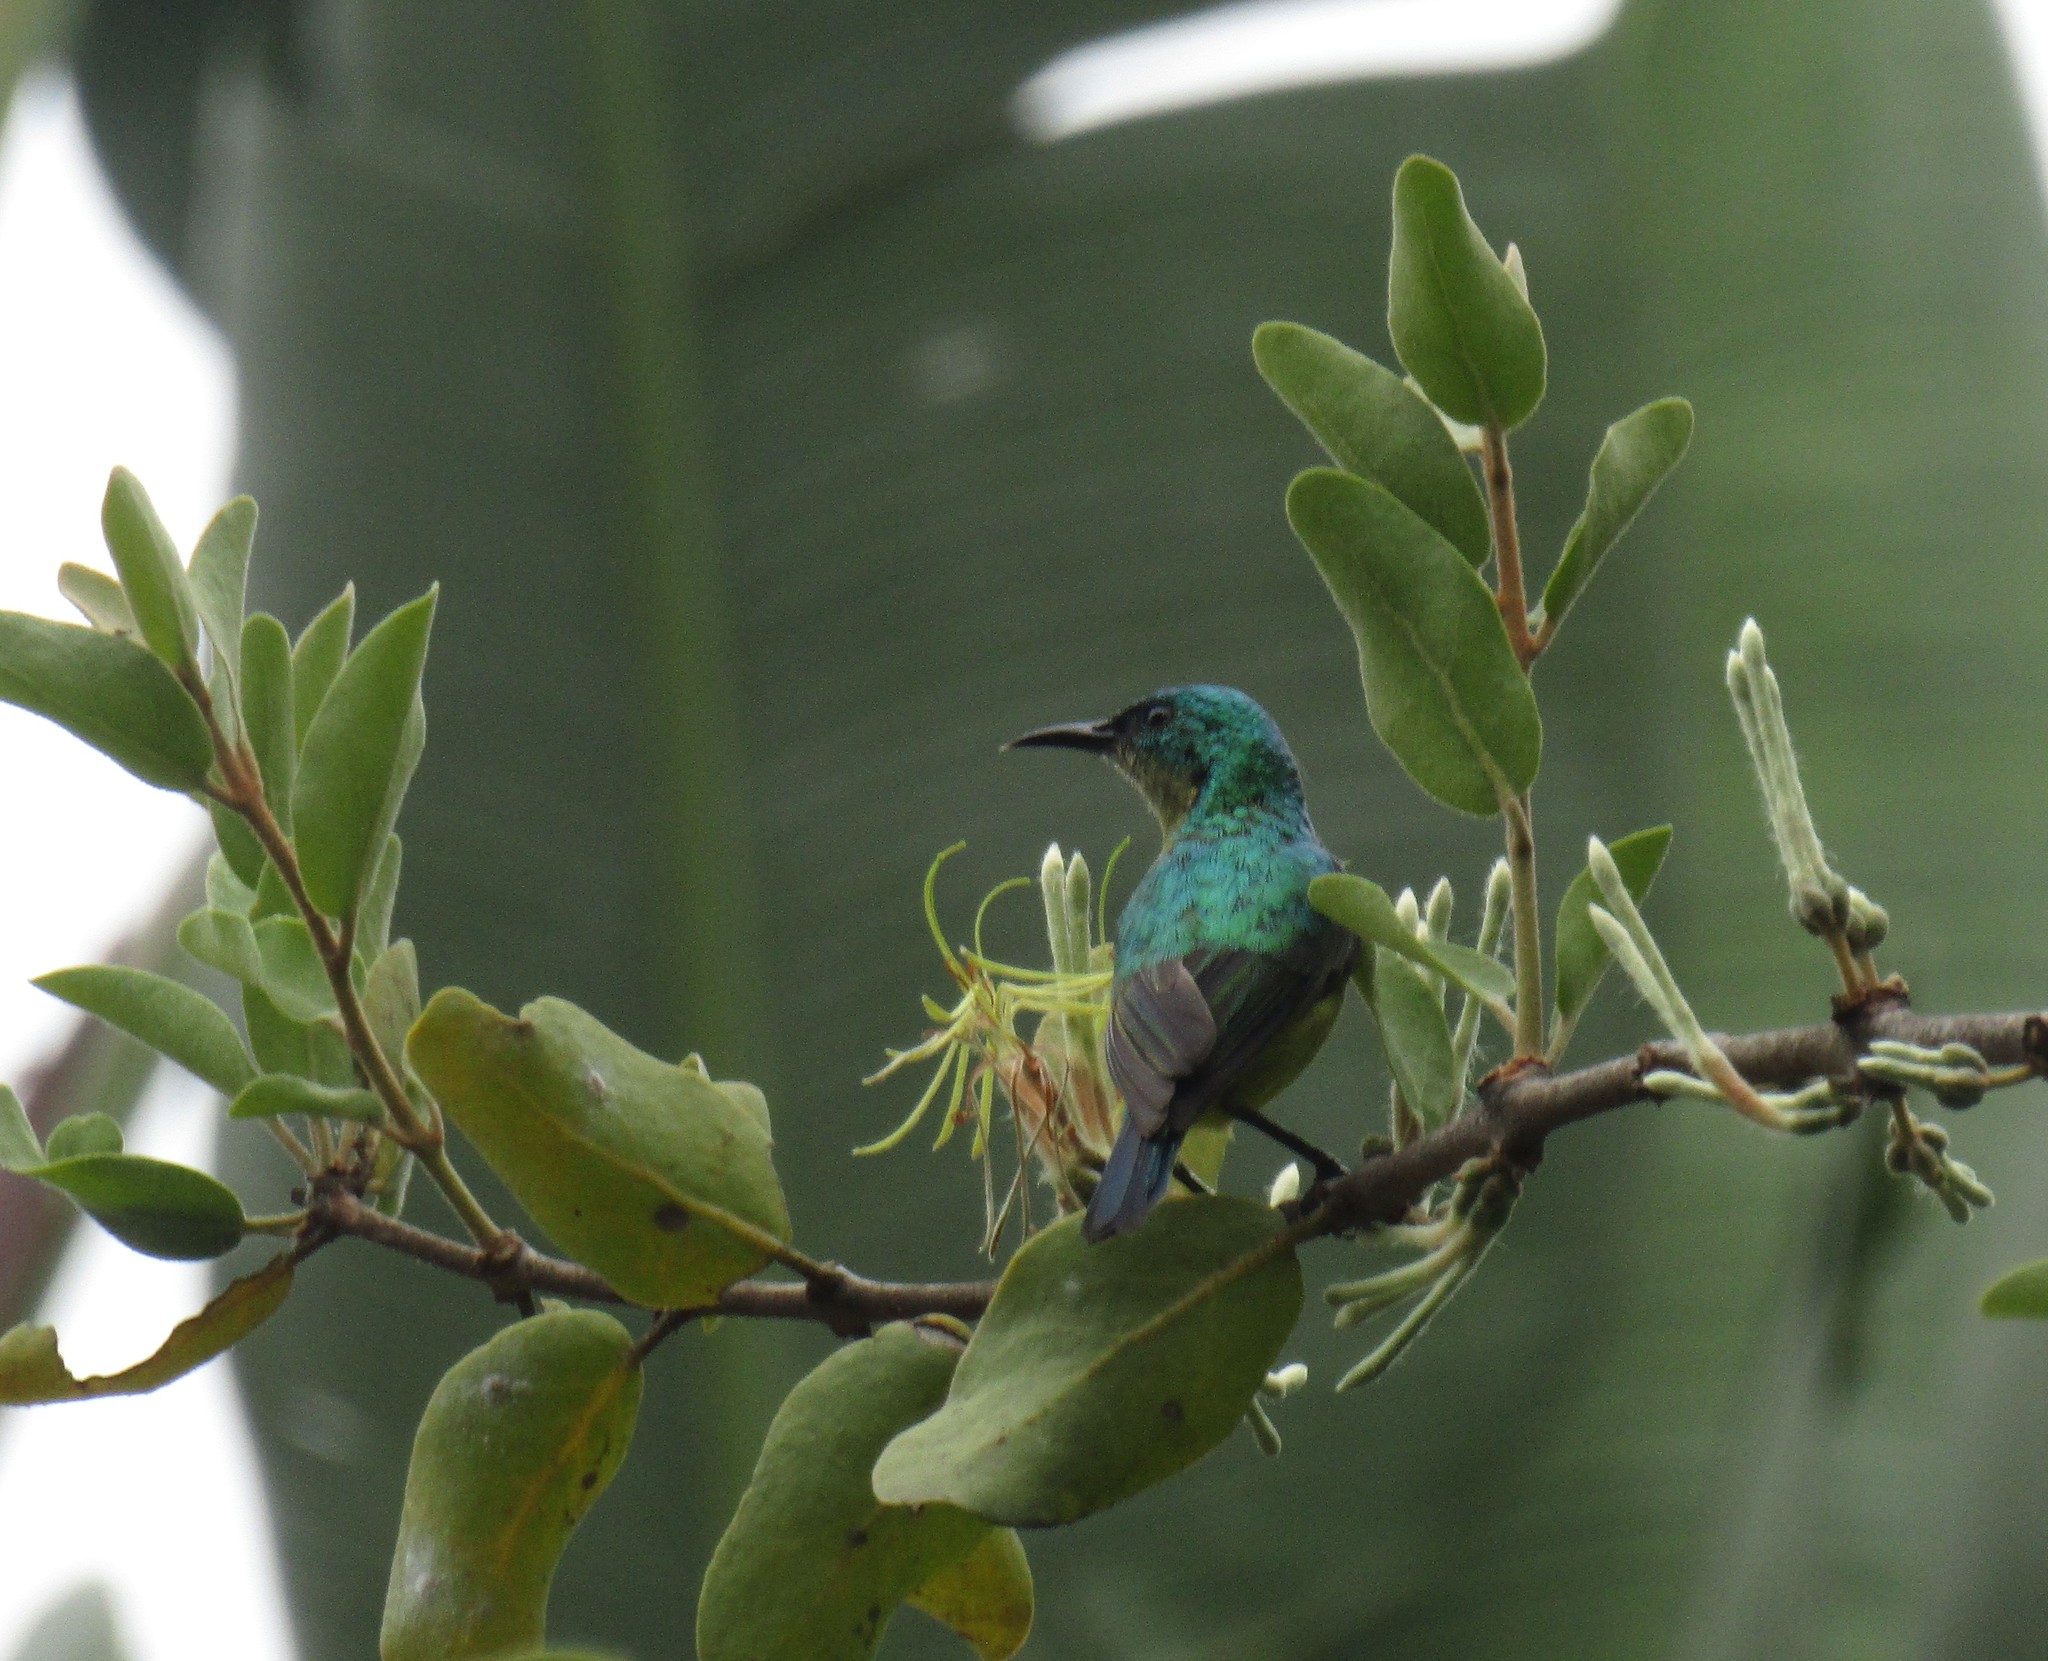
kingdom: Animalia
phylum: Chordata
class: Aves
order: Passeriformes
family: Nectariniidae
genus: Hedydipna
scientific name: Hedydipna collaris
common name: Collared sunbird
